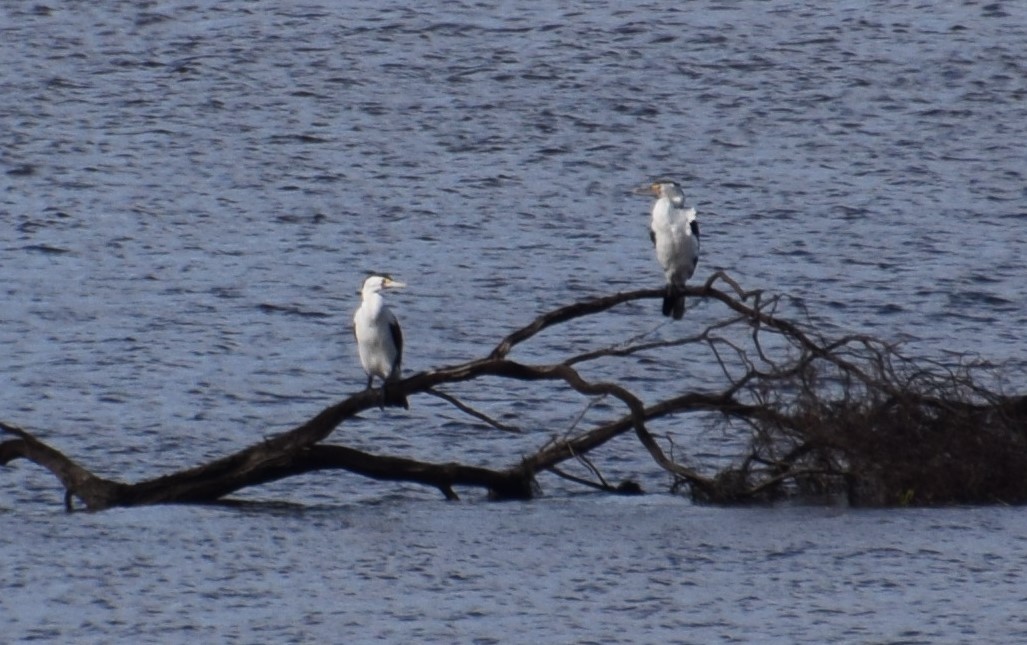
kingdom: Animalia
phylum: Chordata
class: Aves
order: Suliformes
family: Phalacrocoracidae
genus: Phalacrocorax
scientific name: Phalacrocorax varius
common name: Pied cormorant
